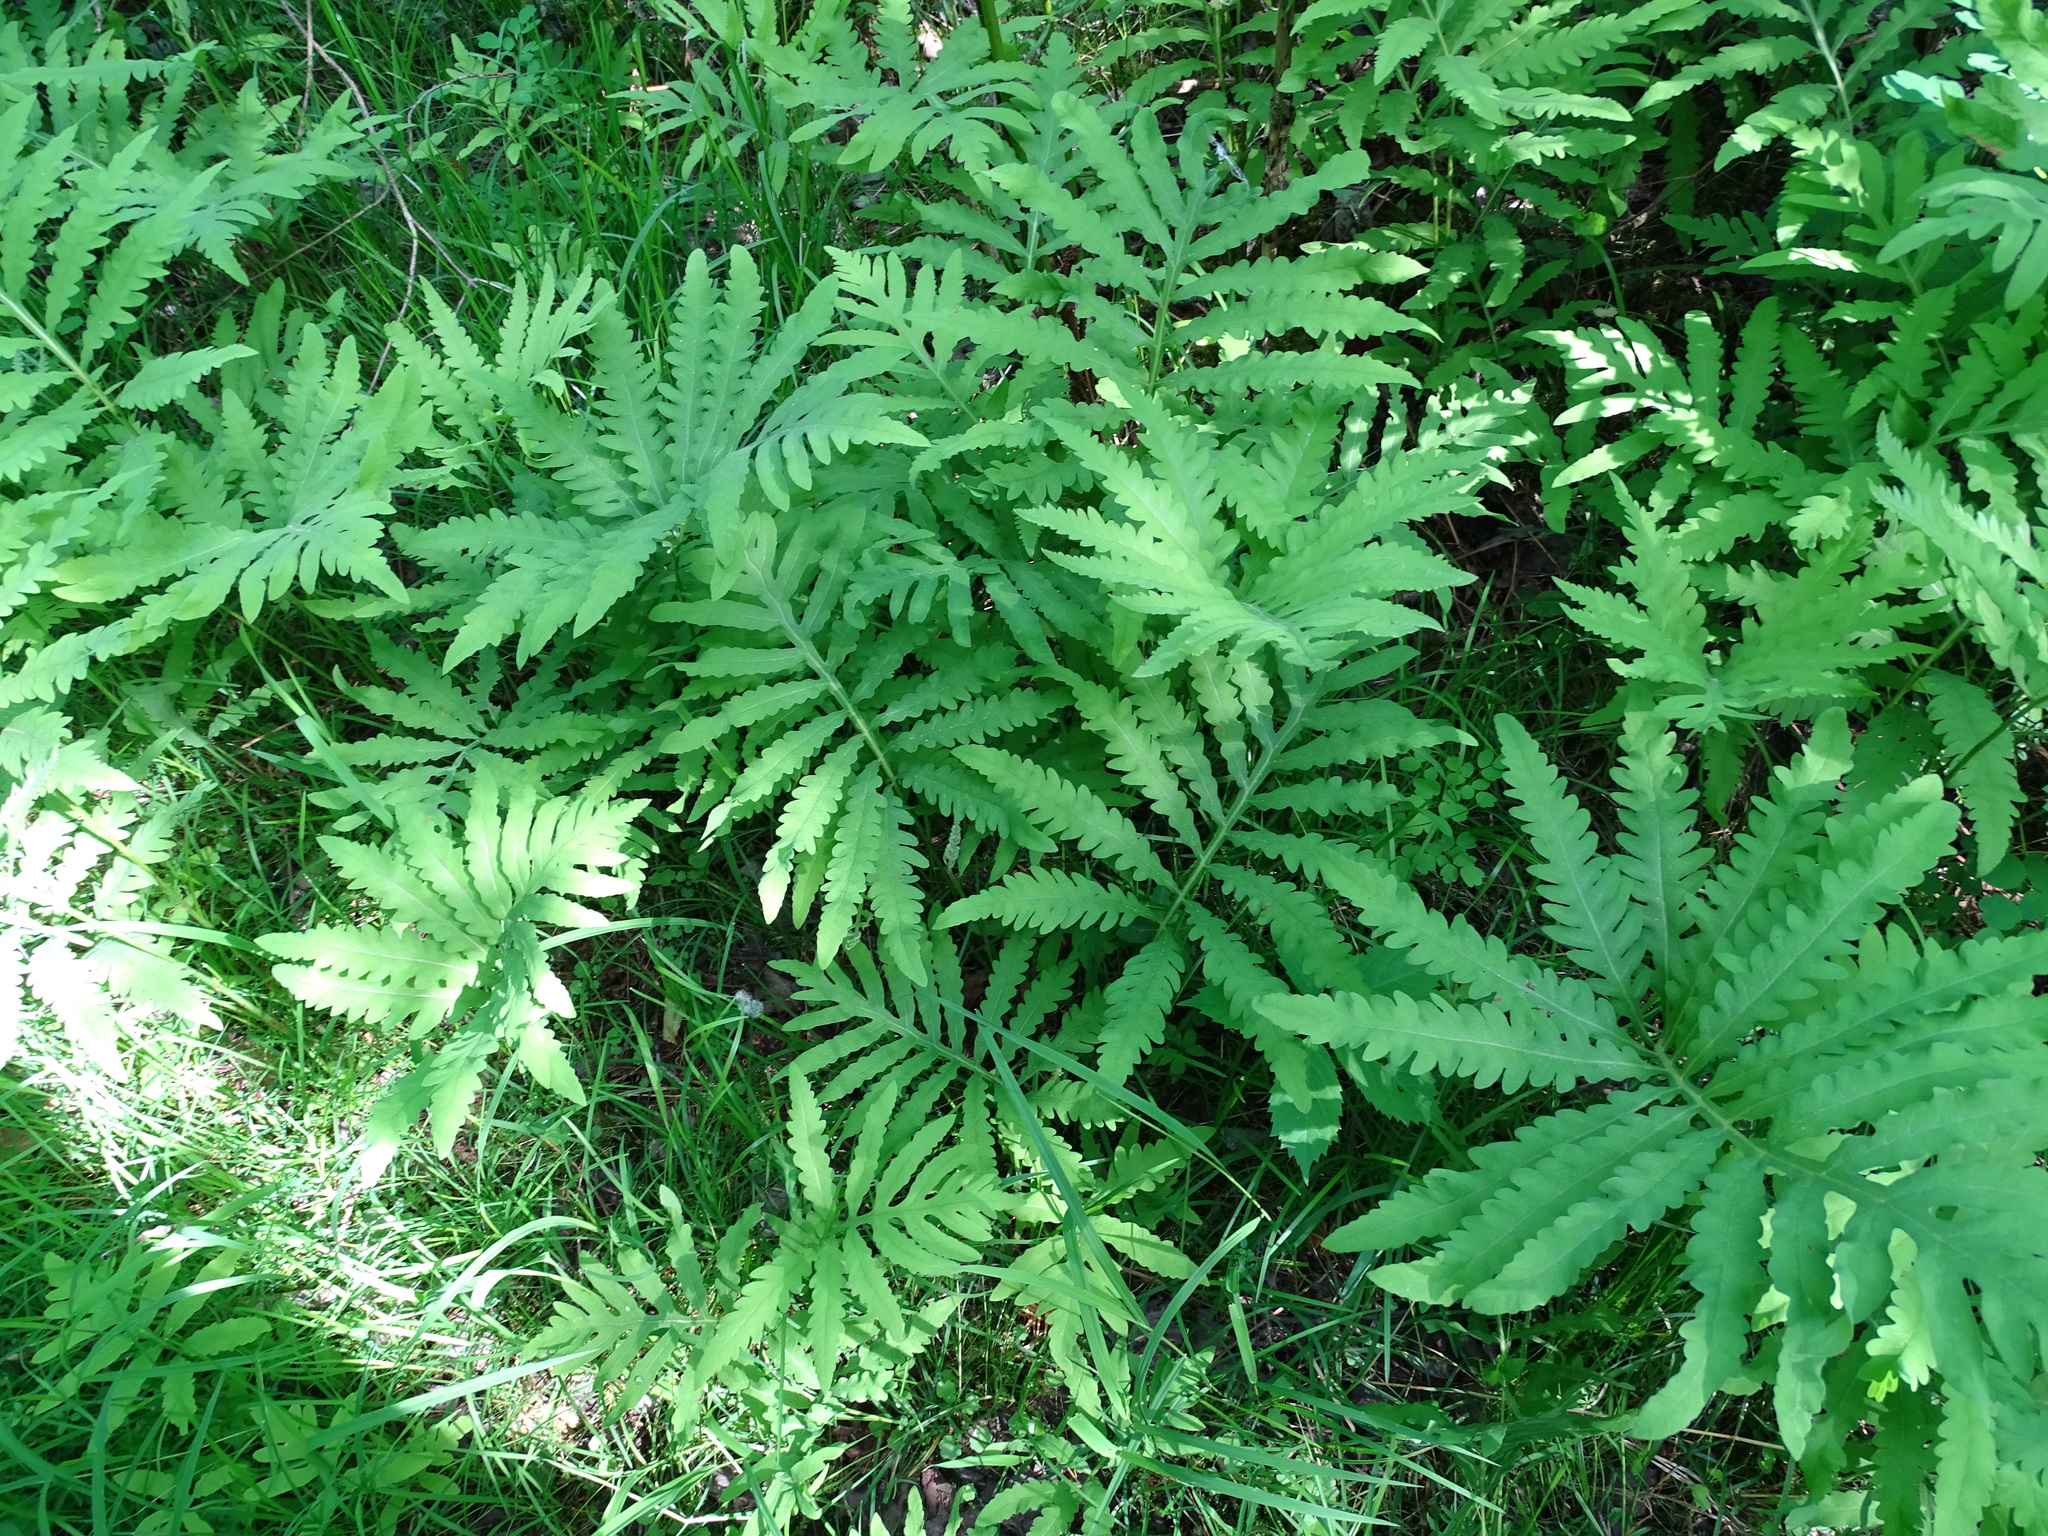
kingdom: Plantae
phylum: Tracheophyta
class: Polypodiopsida
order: Polypodiales
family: Onocleaceae
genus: Onoclea
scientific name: Onoclea sensibilis
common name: Sensitive fern
